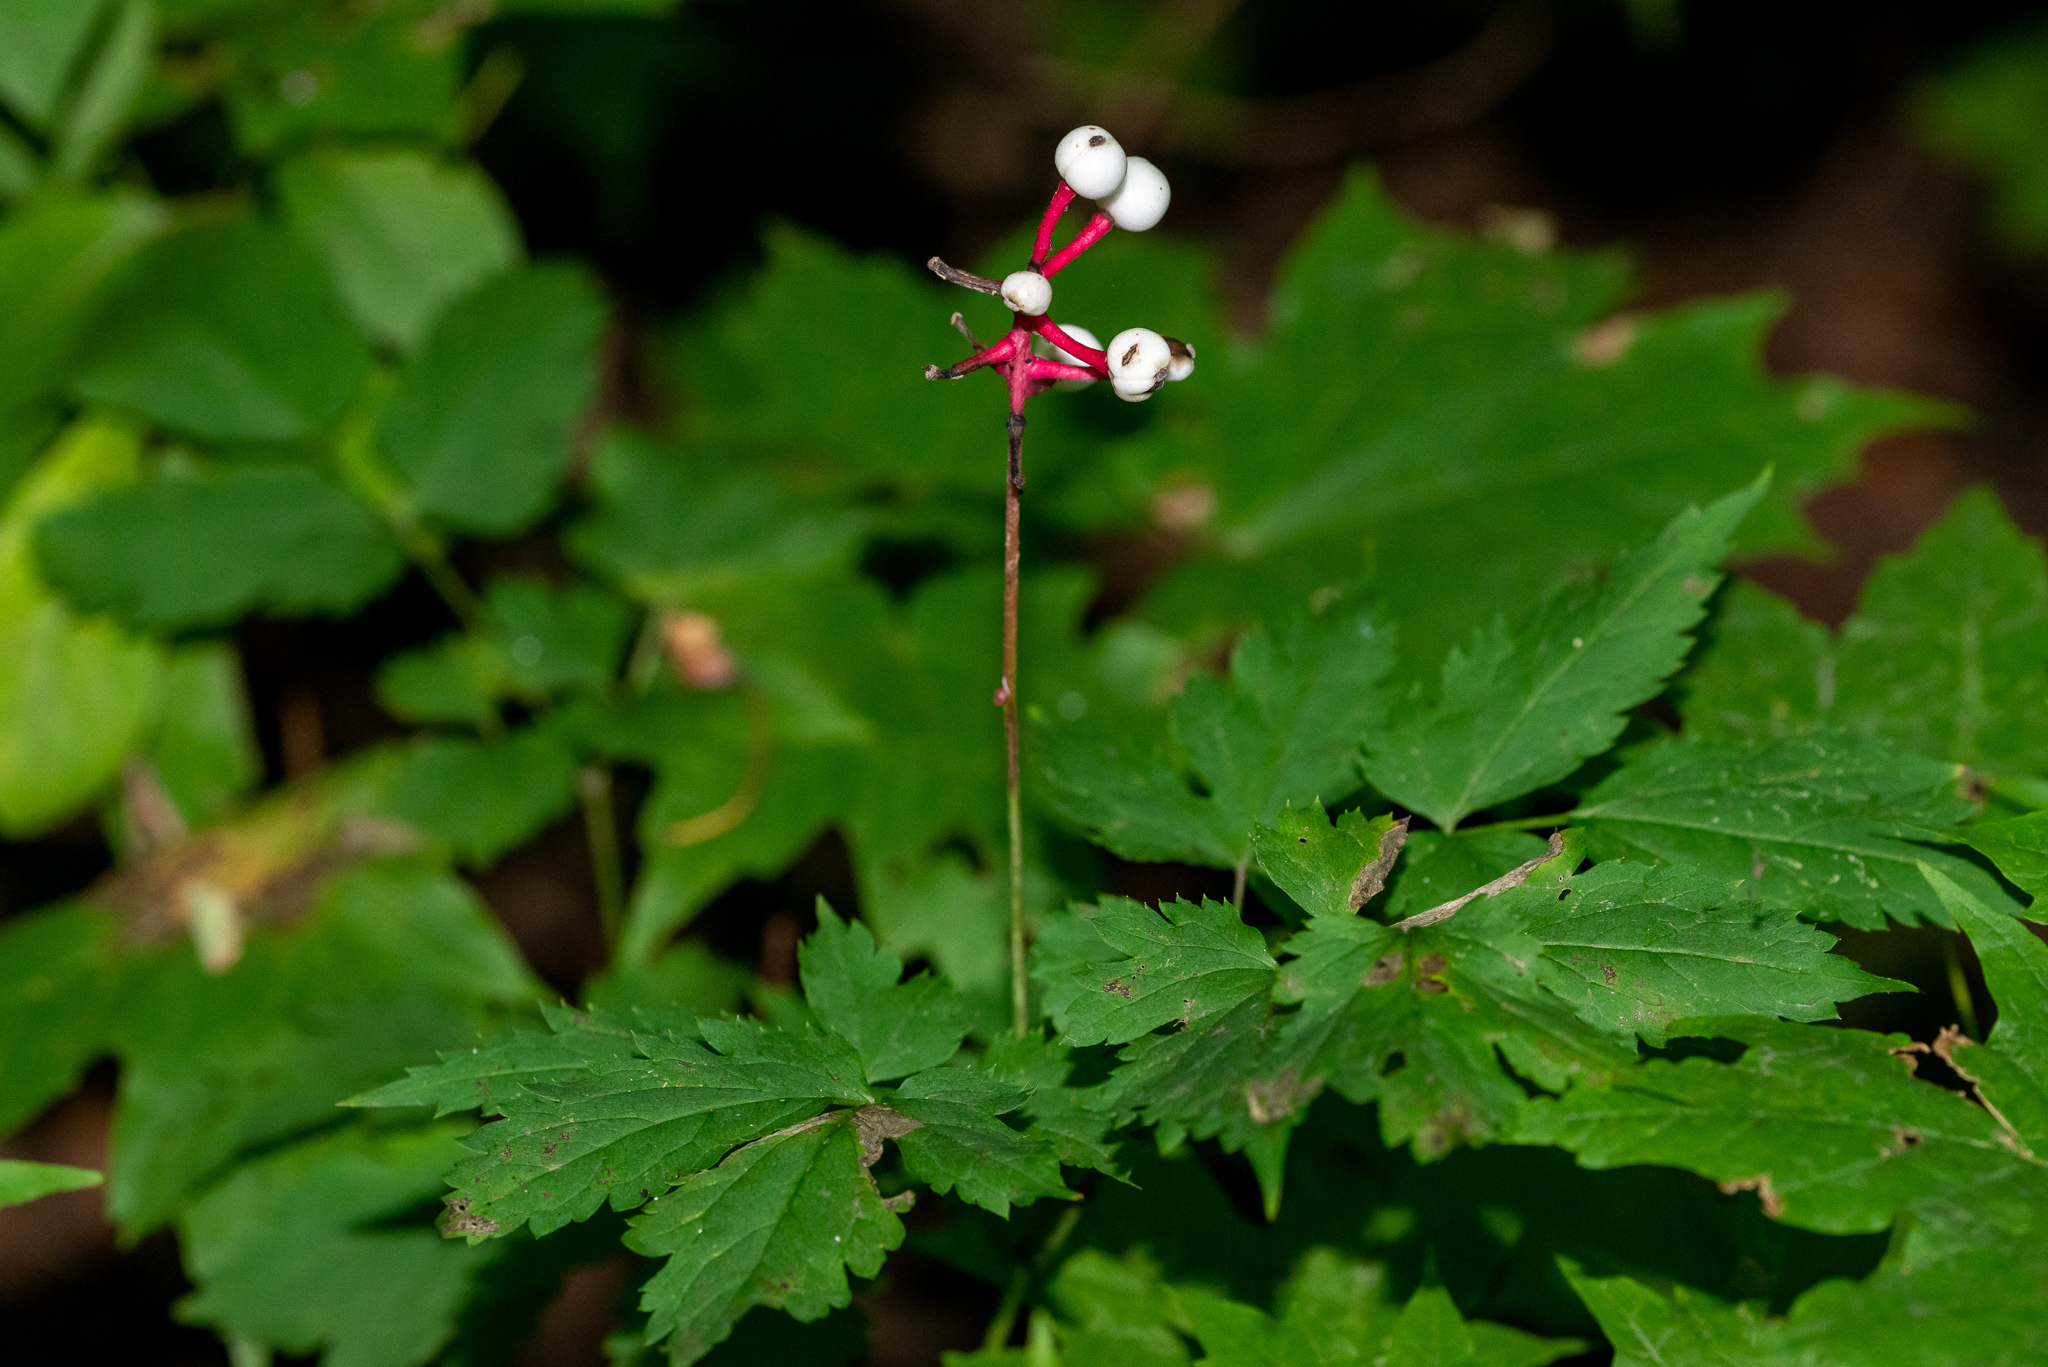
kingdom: Plantae
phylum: Tracheophyta
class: Magnoliopsida
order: Ranunculales
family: Ranunculaceae
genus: Actaea
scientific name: Actaea pachypoda
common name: Doll's-eyes
